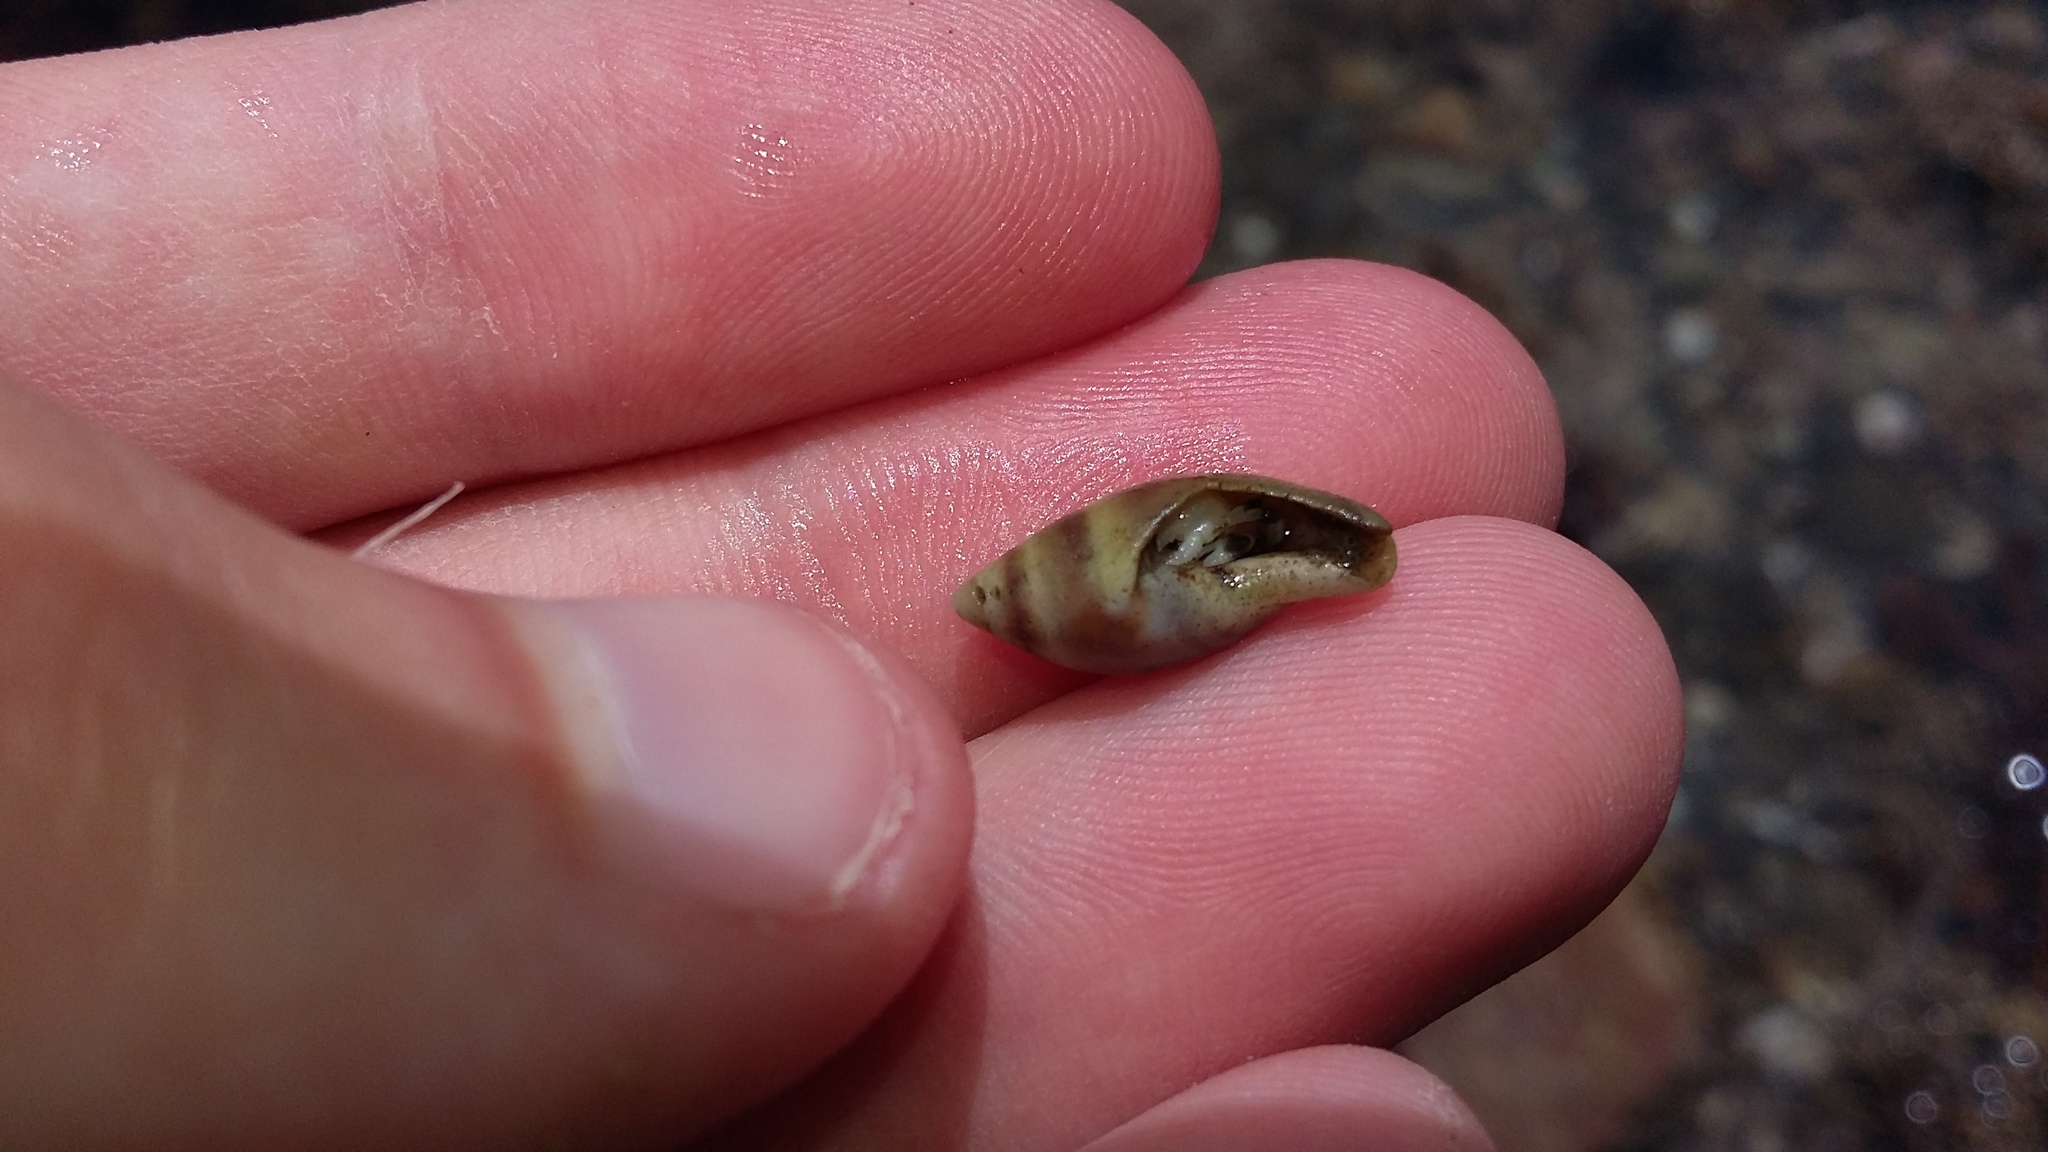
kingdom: Animalia
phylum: Mollusca
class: Gastropoda
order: Neogastropoda
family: Ancillariidae
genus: Amalda
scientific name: Amalda australis
